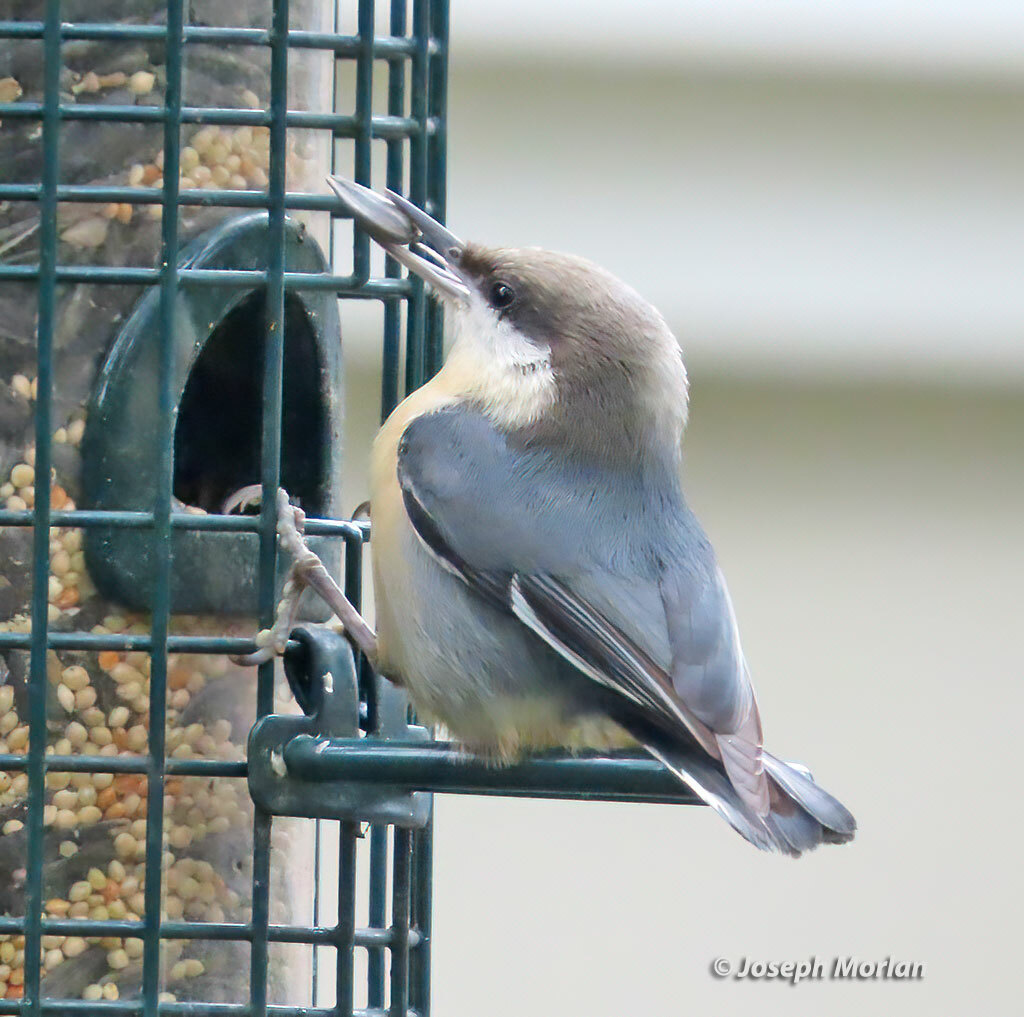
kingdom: Animalia
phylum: Chordata
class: Aves
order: Passeriformes
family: Sittidae
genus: Sitta
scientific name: Sitta pygmaea
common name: Pygmy nuthatch
